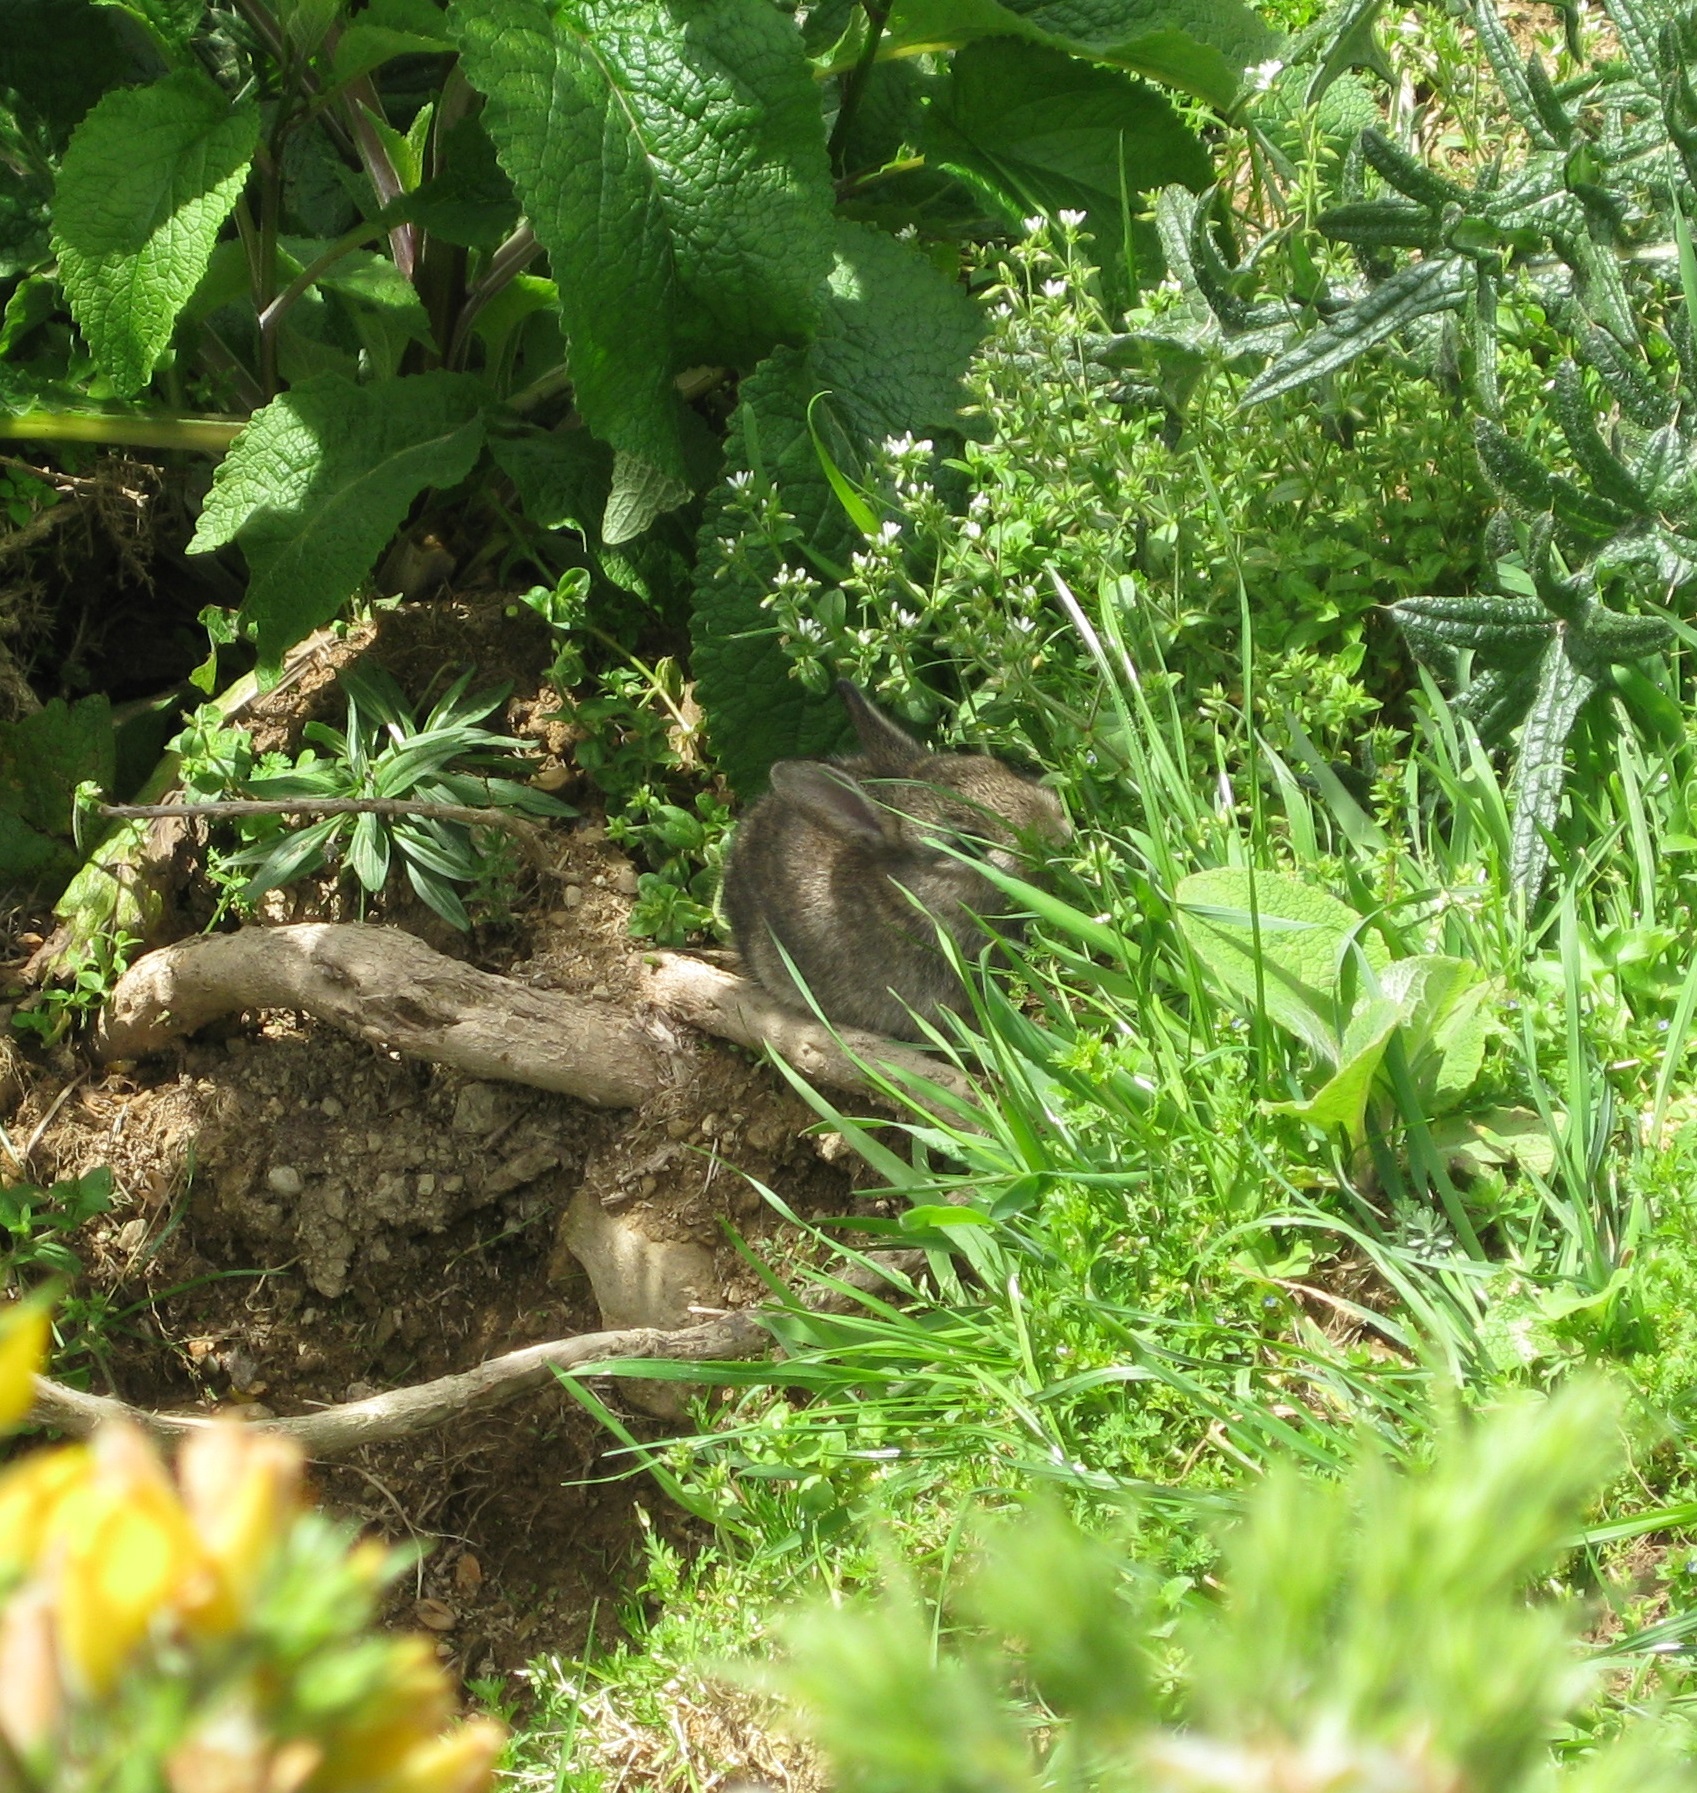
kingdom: Animalia
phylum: Chordata
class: Mammalia
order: Lagomorpha
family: Leporidae
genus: Oryctolagus
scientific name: Oryctolagus cuniculus
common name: European rabbit
